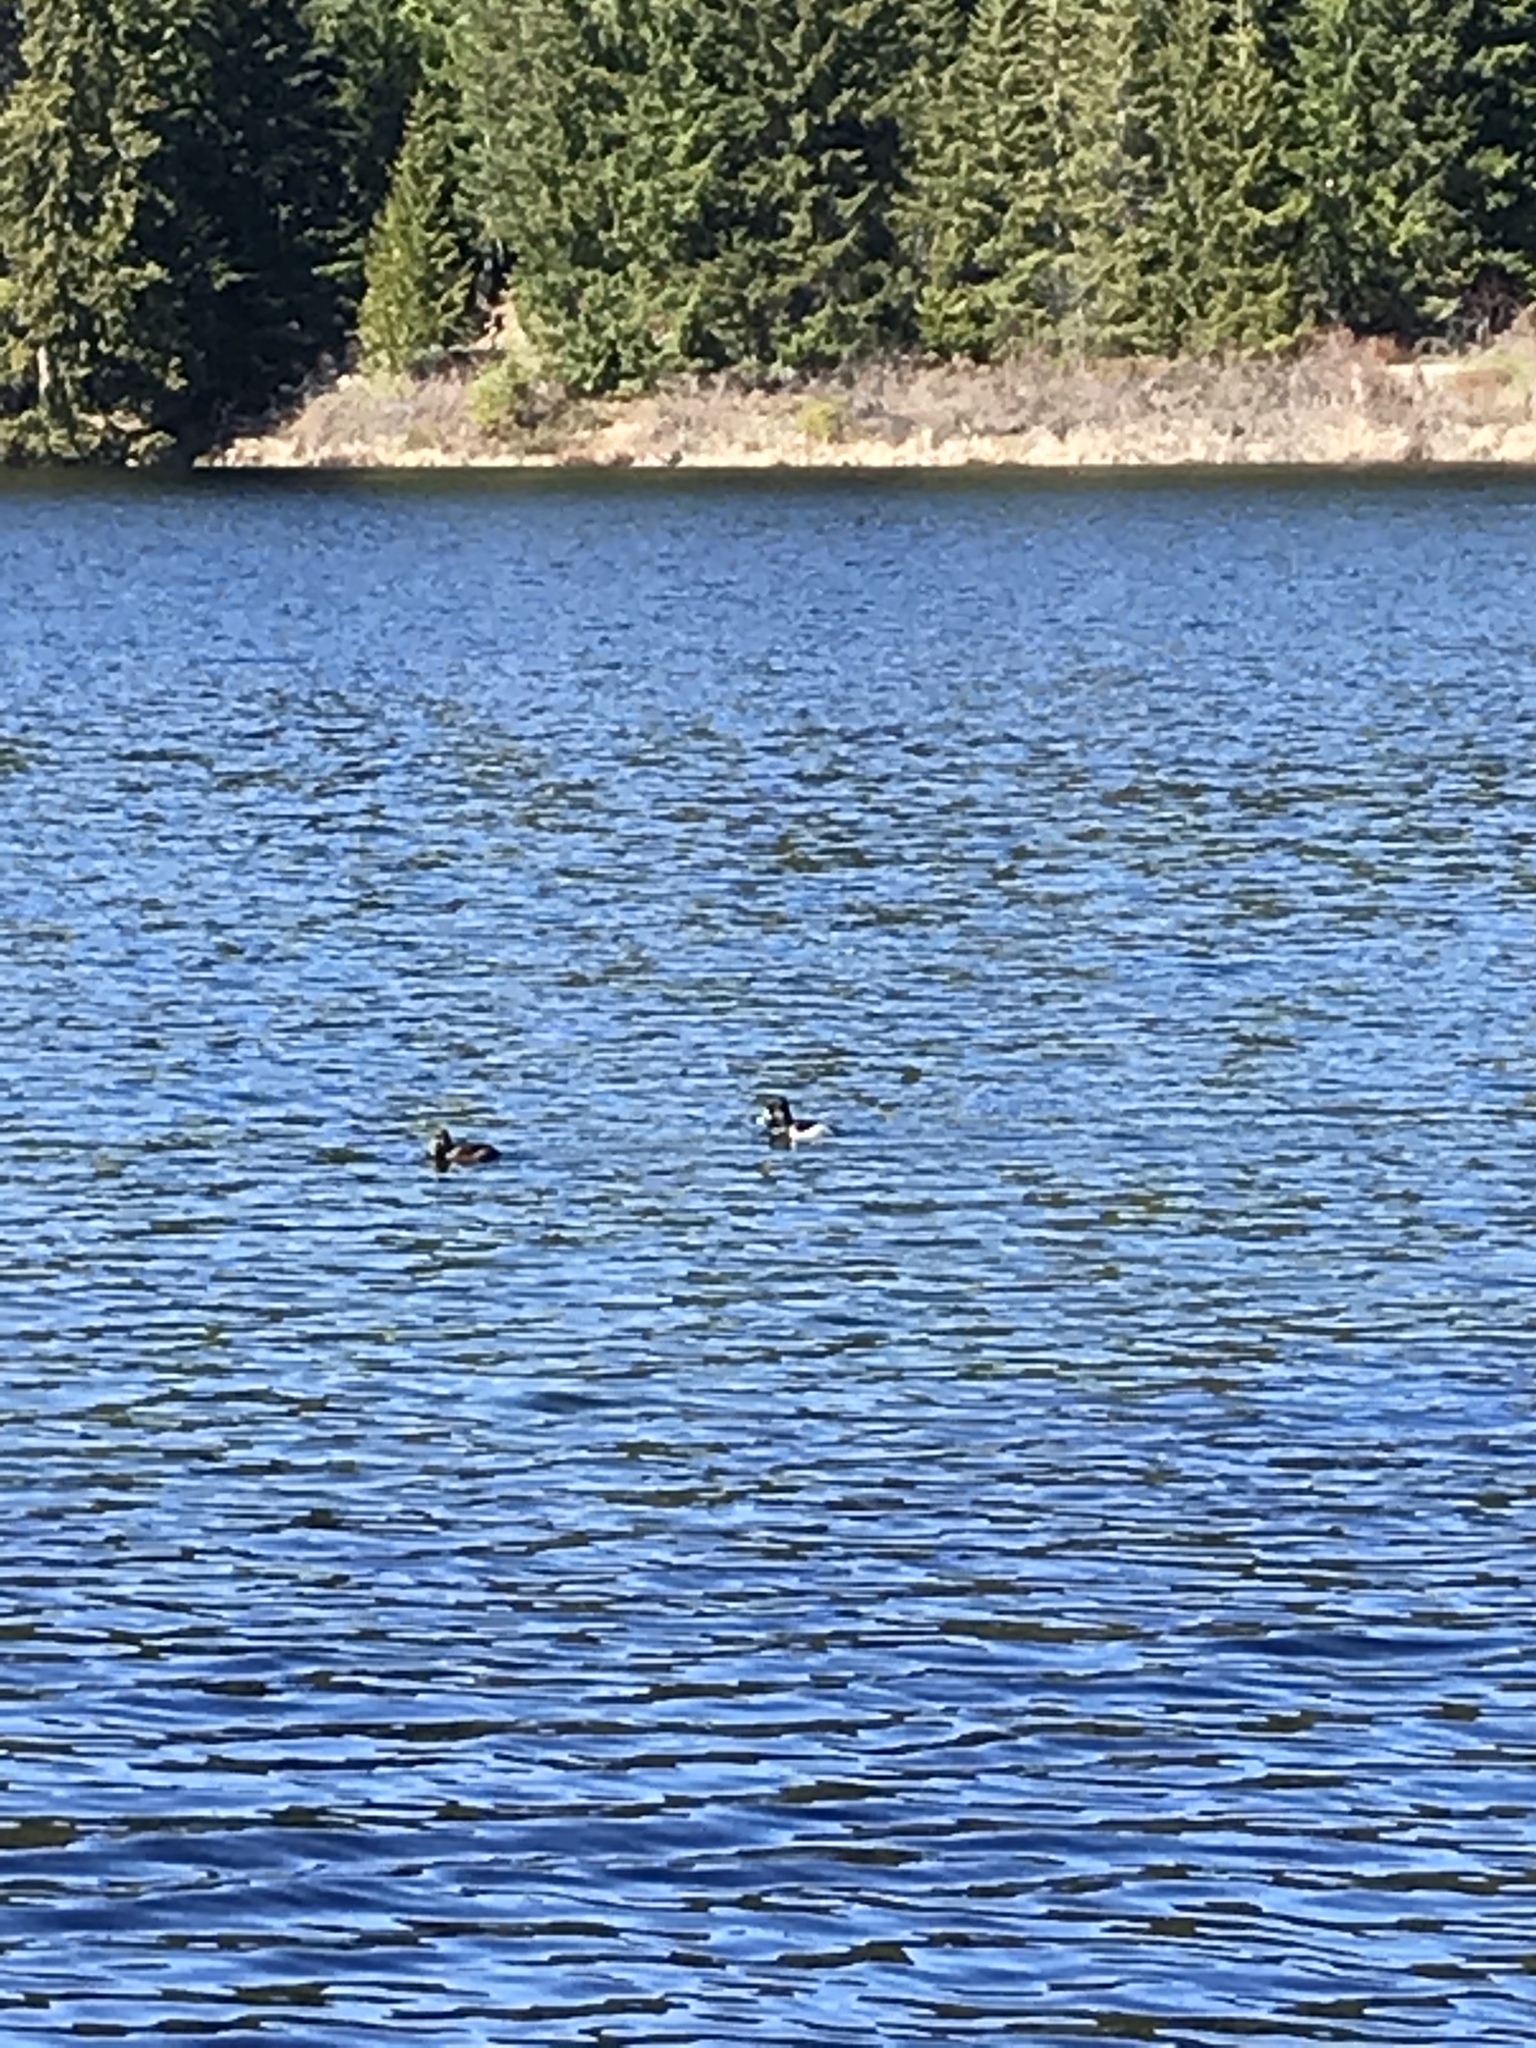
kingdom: Animalia
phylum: Chordata
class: Aves
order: Anseriformes
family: Anatidae
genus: Aythya
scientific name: Aythya collaris
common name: Ring-necked duck
